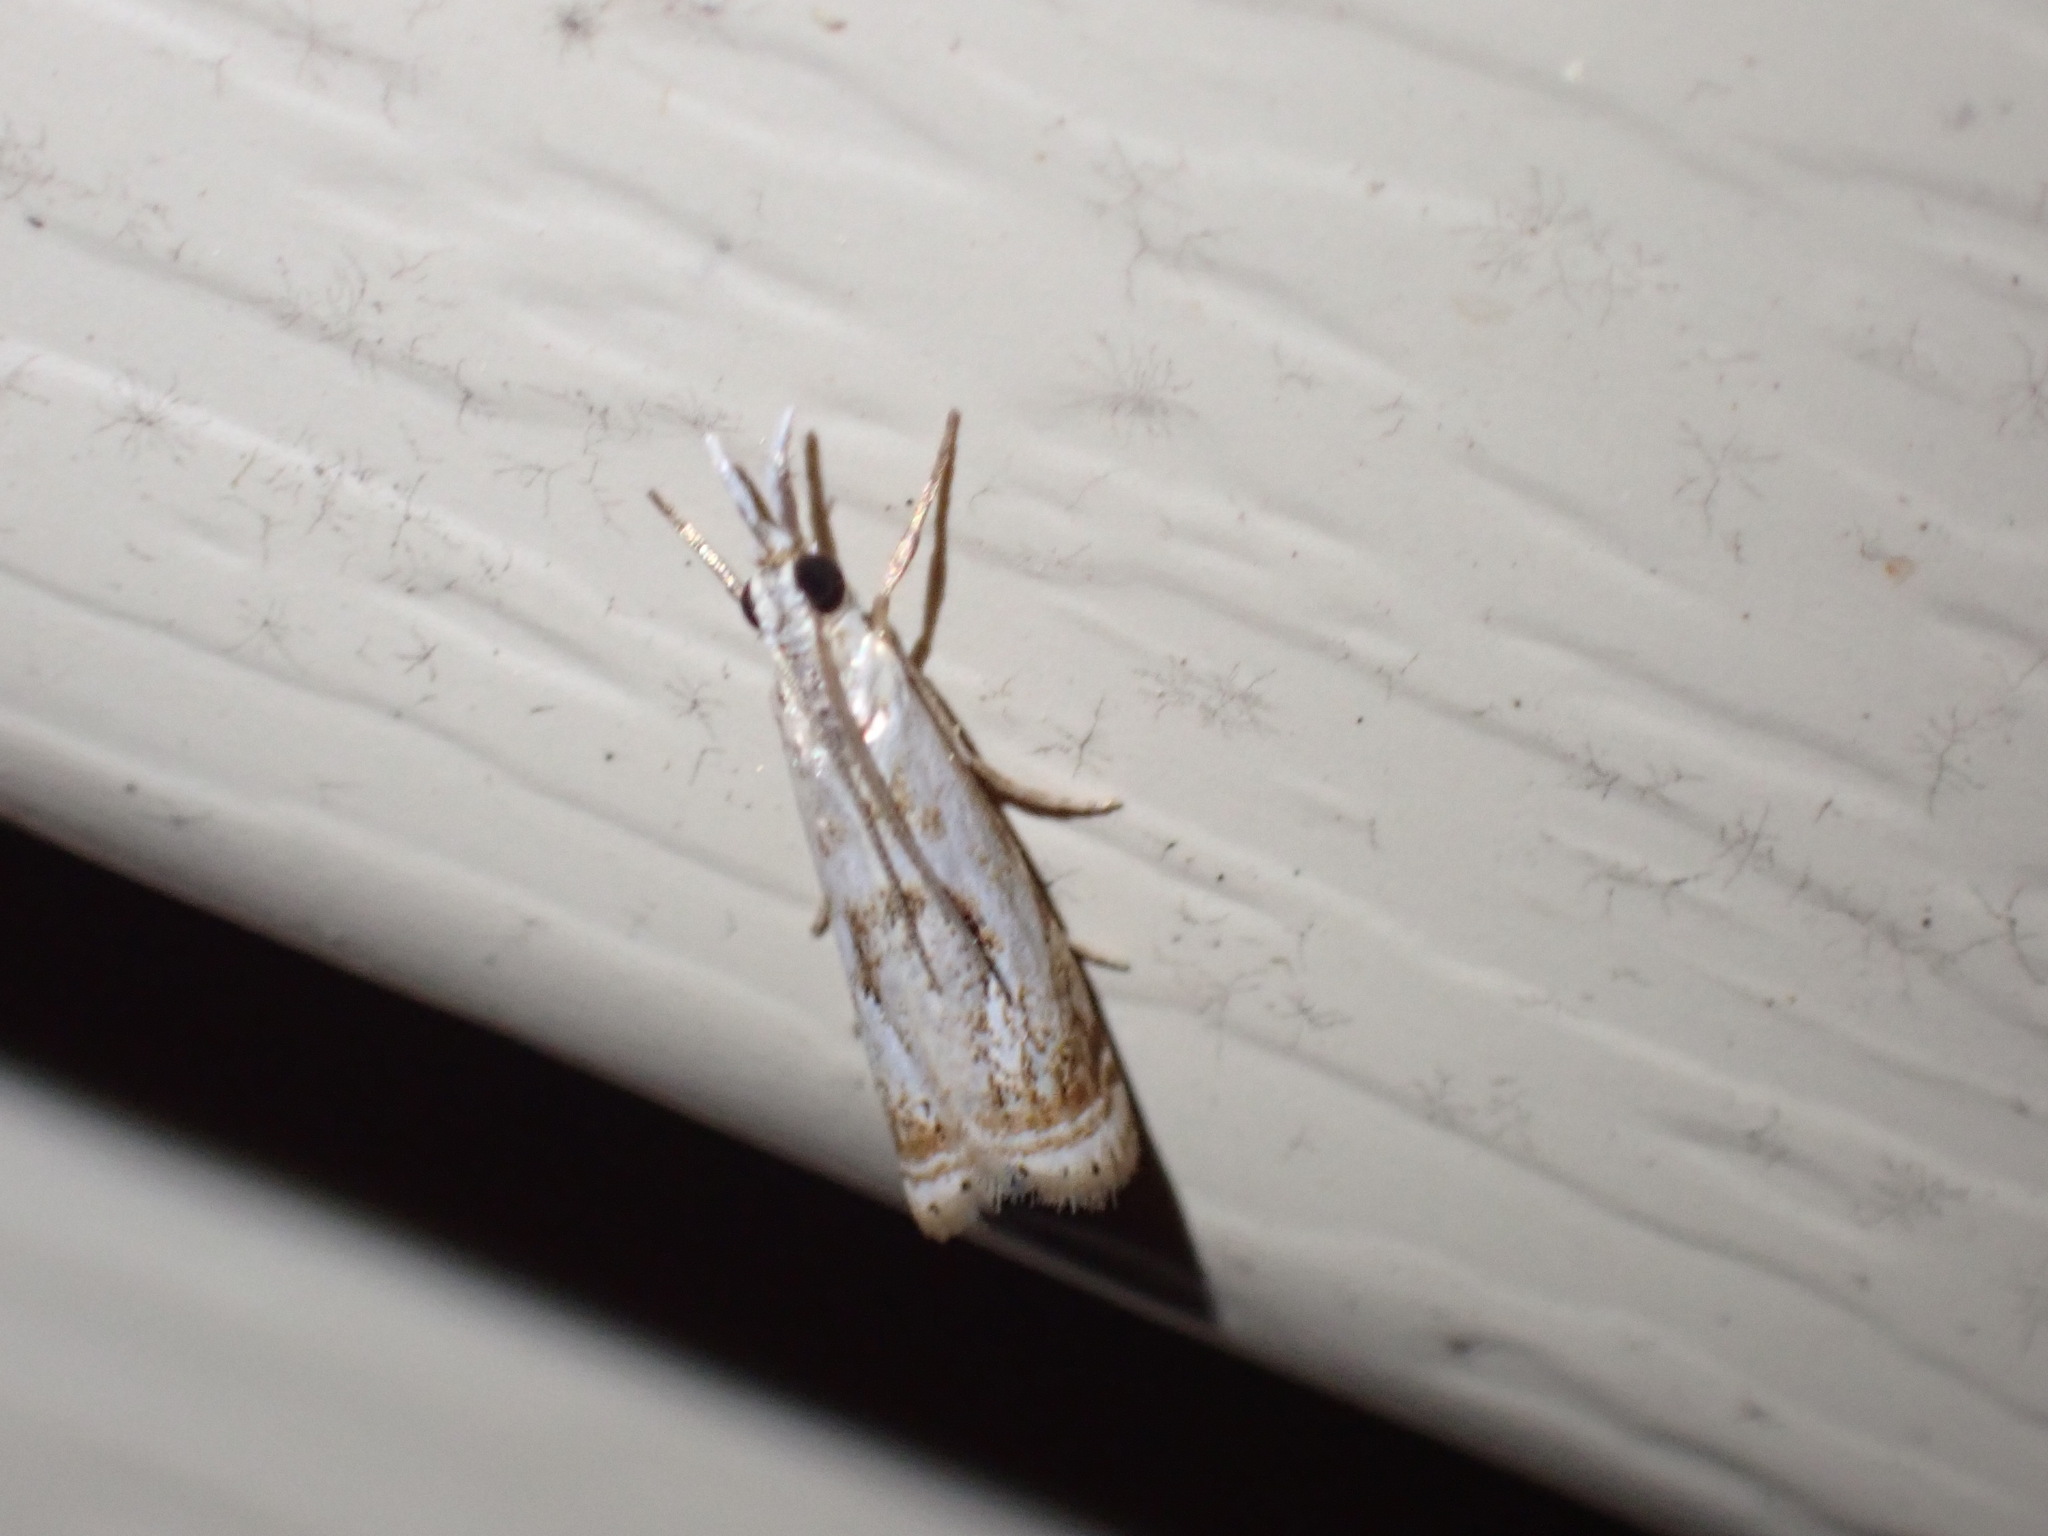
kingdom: Animalia
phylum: Arthropoda
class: Insecta
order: Lepidoptera
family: Crambidae
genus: Microcrambus
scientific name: Microcrambus elegans
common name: Elegant grass-veneer
